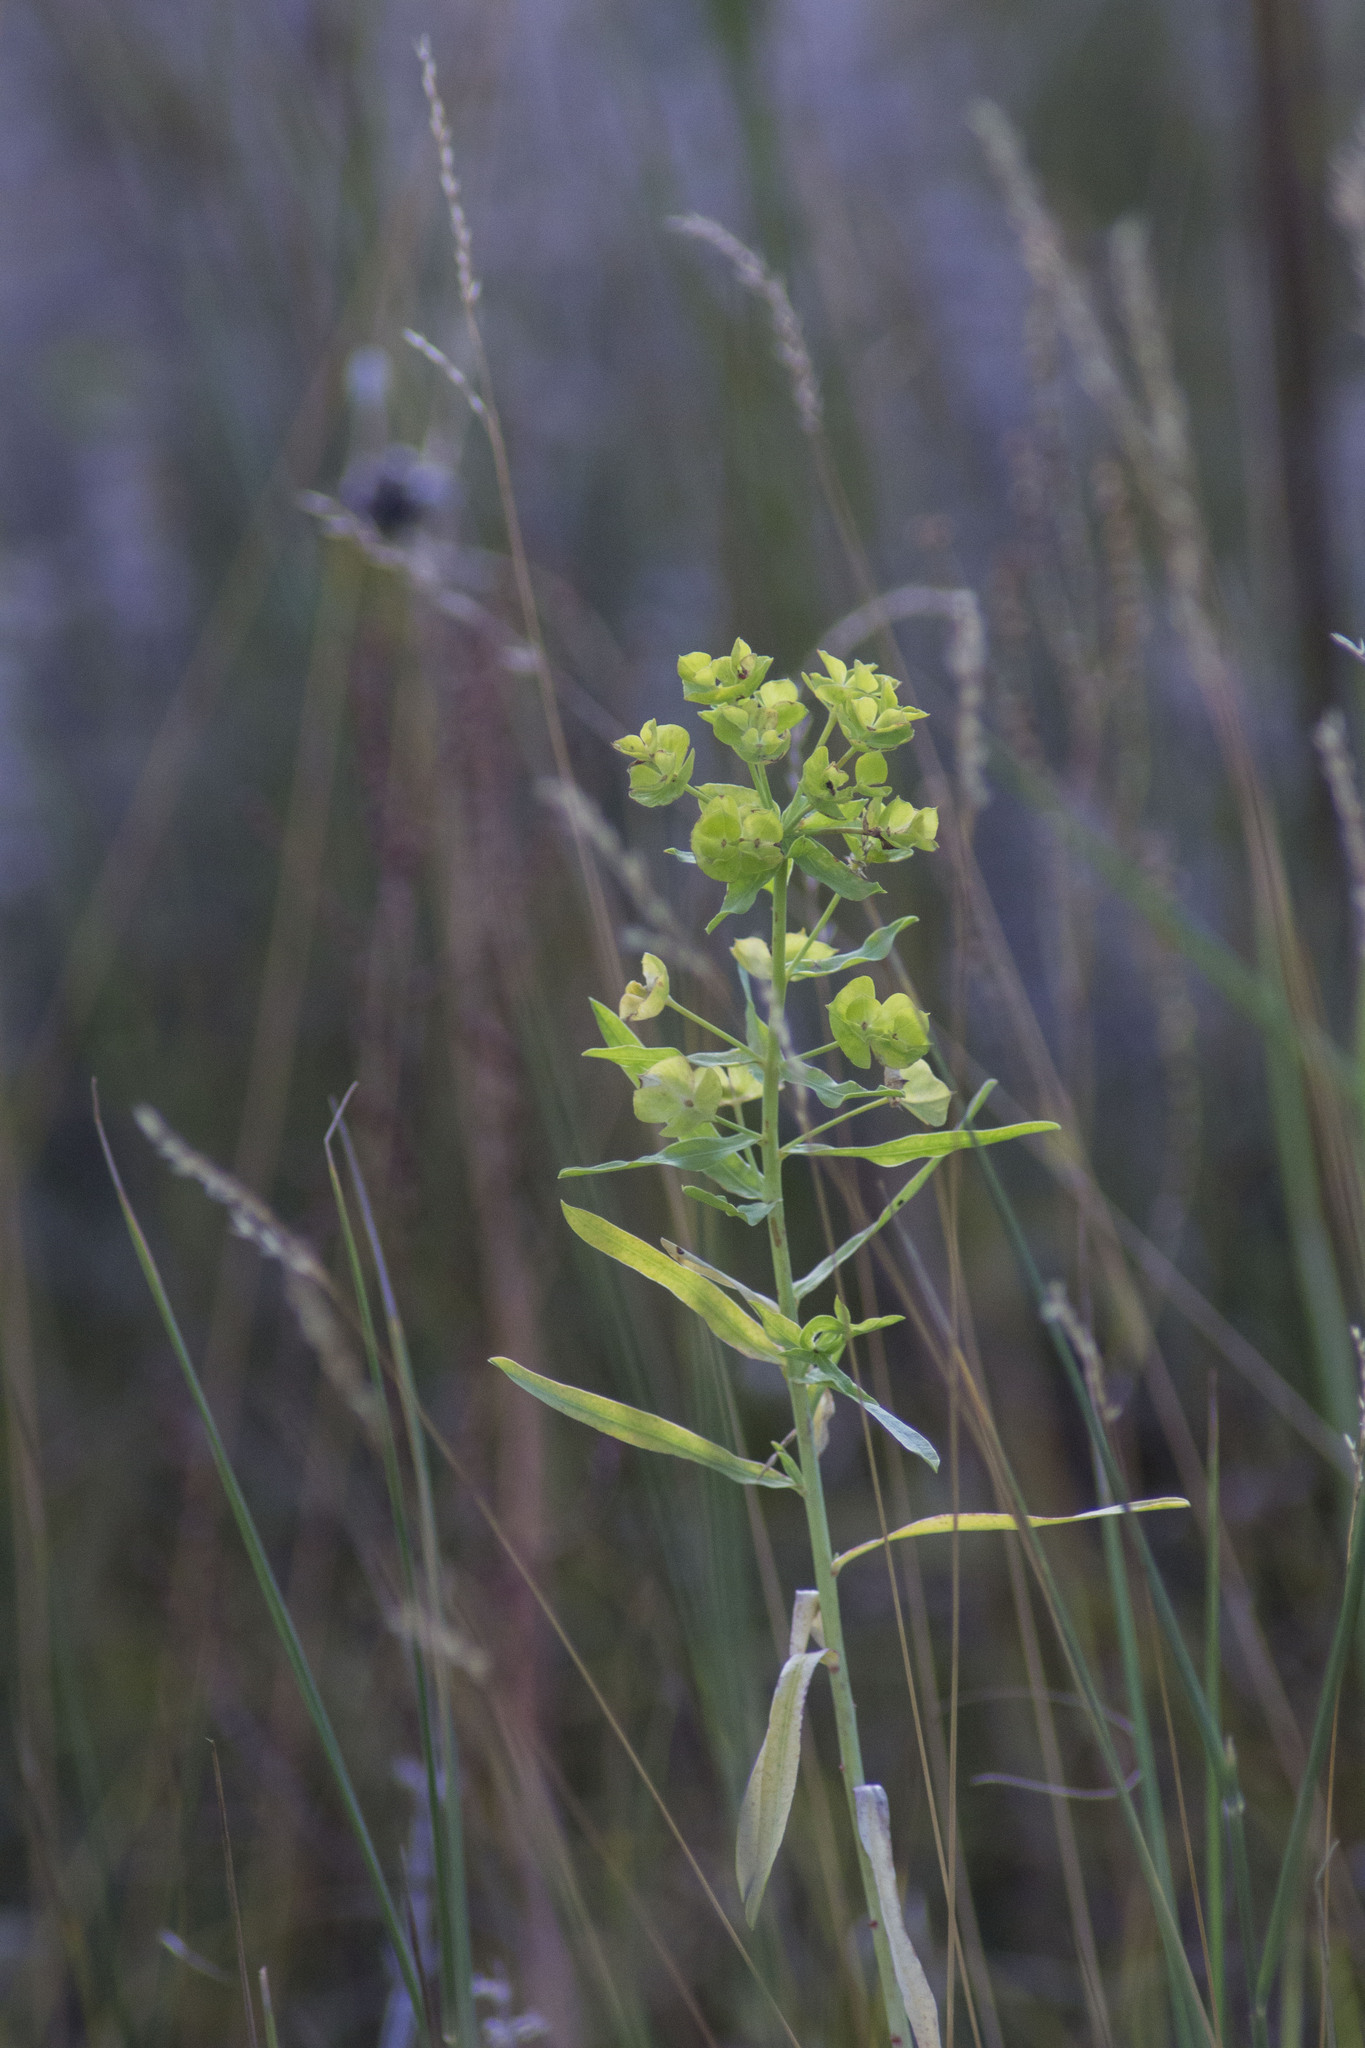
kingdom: Plantae
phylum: Tracheophyta
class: Magnoliopsida
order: Malpighiales
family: Euphorbiaceae
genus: Euphorbia
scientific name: Euphorbia virgata
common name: Leafy spurge
